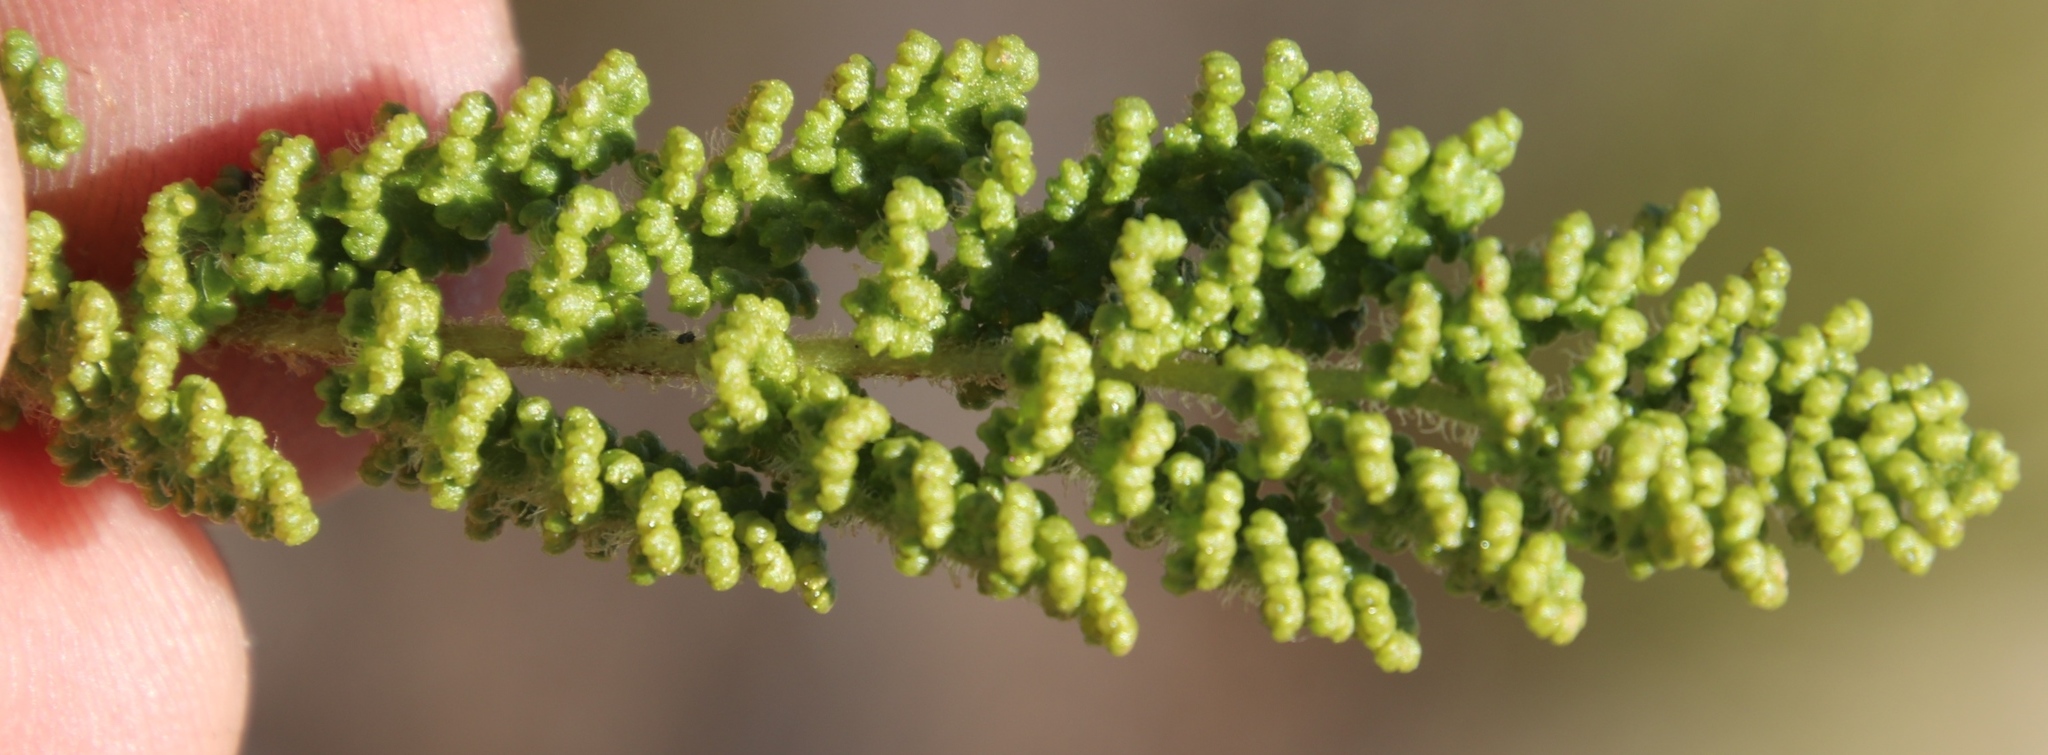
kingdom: Plantae
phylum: Tracheophyta
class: Polypodiopsida
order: Schizaeales
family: Anemiaceae
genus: Anemia
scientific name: Anemia caffrorum
